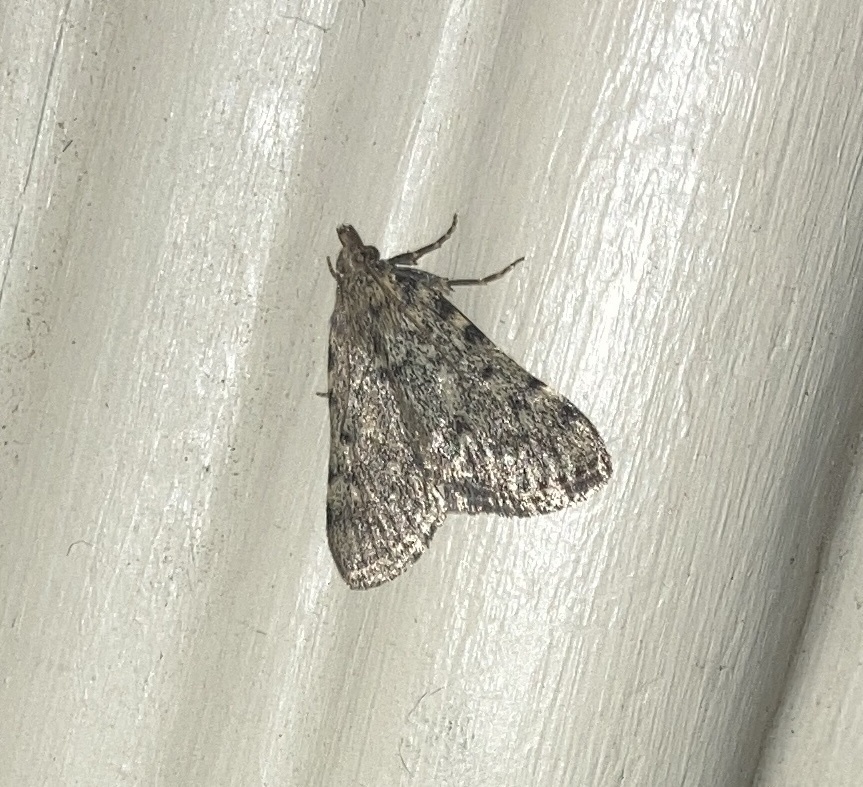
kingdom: Animalia
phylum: Arthropoda
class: Insecta
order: Lepidoptera
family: Pyralidae
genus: Aglossa
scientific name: Aglossa pinguinalis
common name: Large tabby
